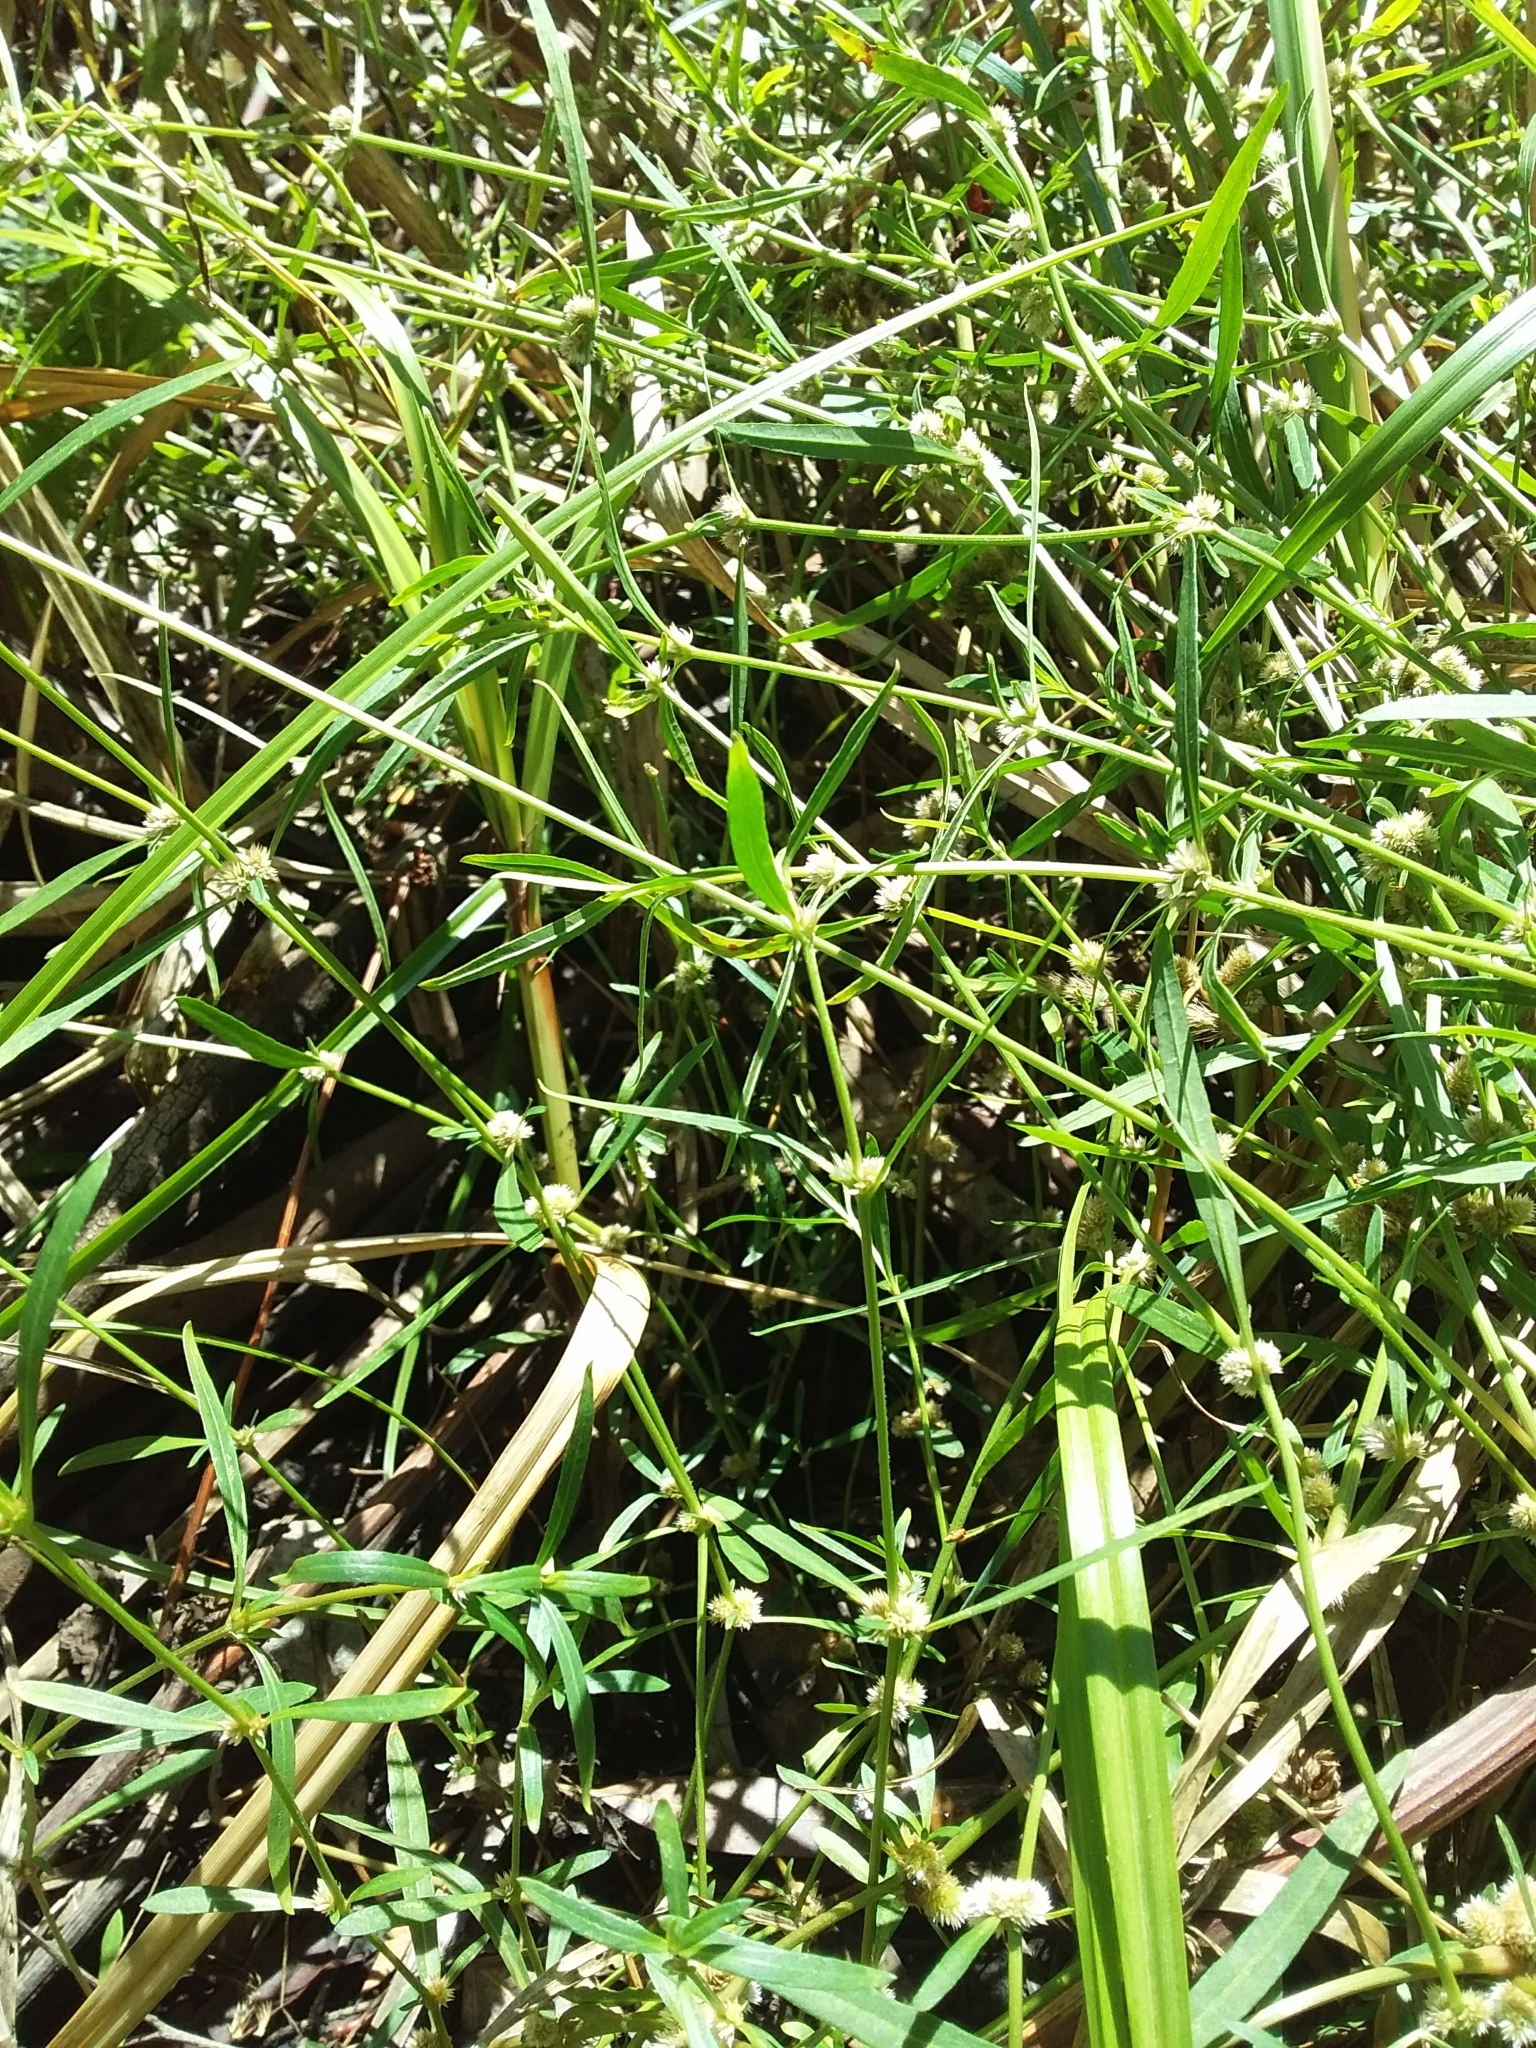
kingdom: Plantae
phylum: Tracheophyta
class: Magnoliopsida
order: Caryophyllales
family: Amaranthaceae
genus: Alternanthera
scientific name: Alternanthera denticulata
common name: Lesser joyweed
